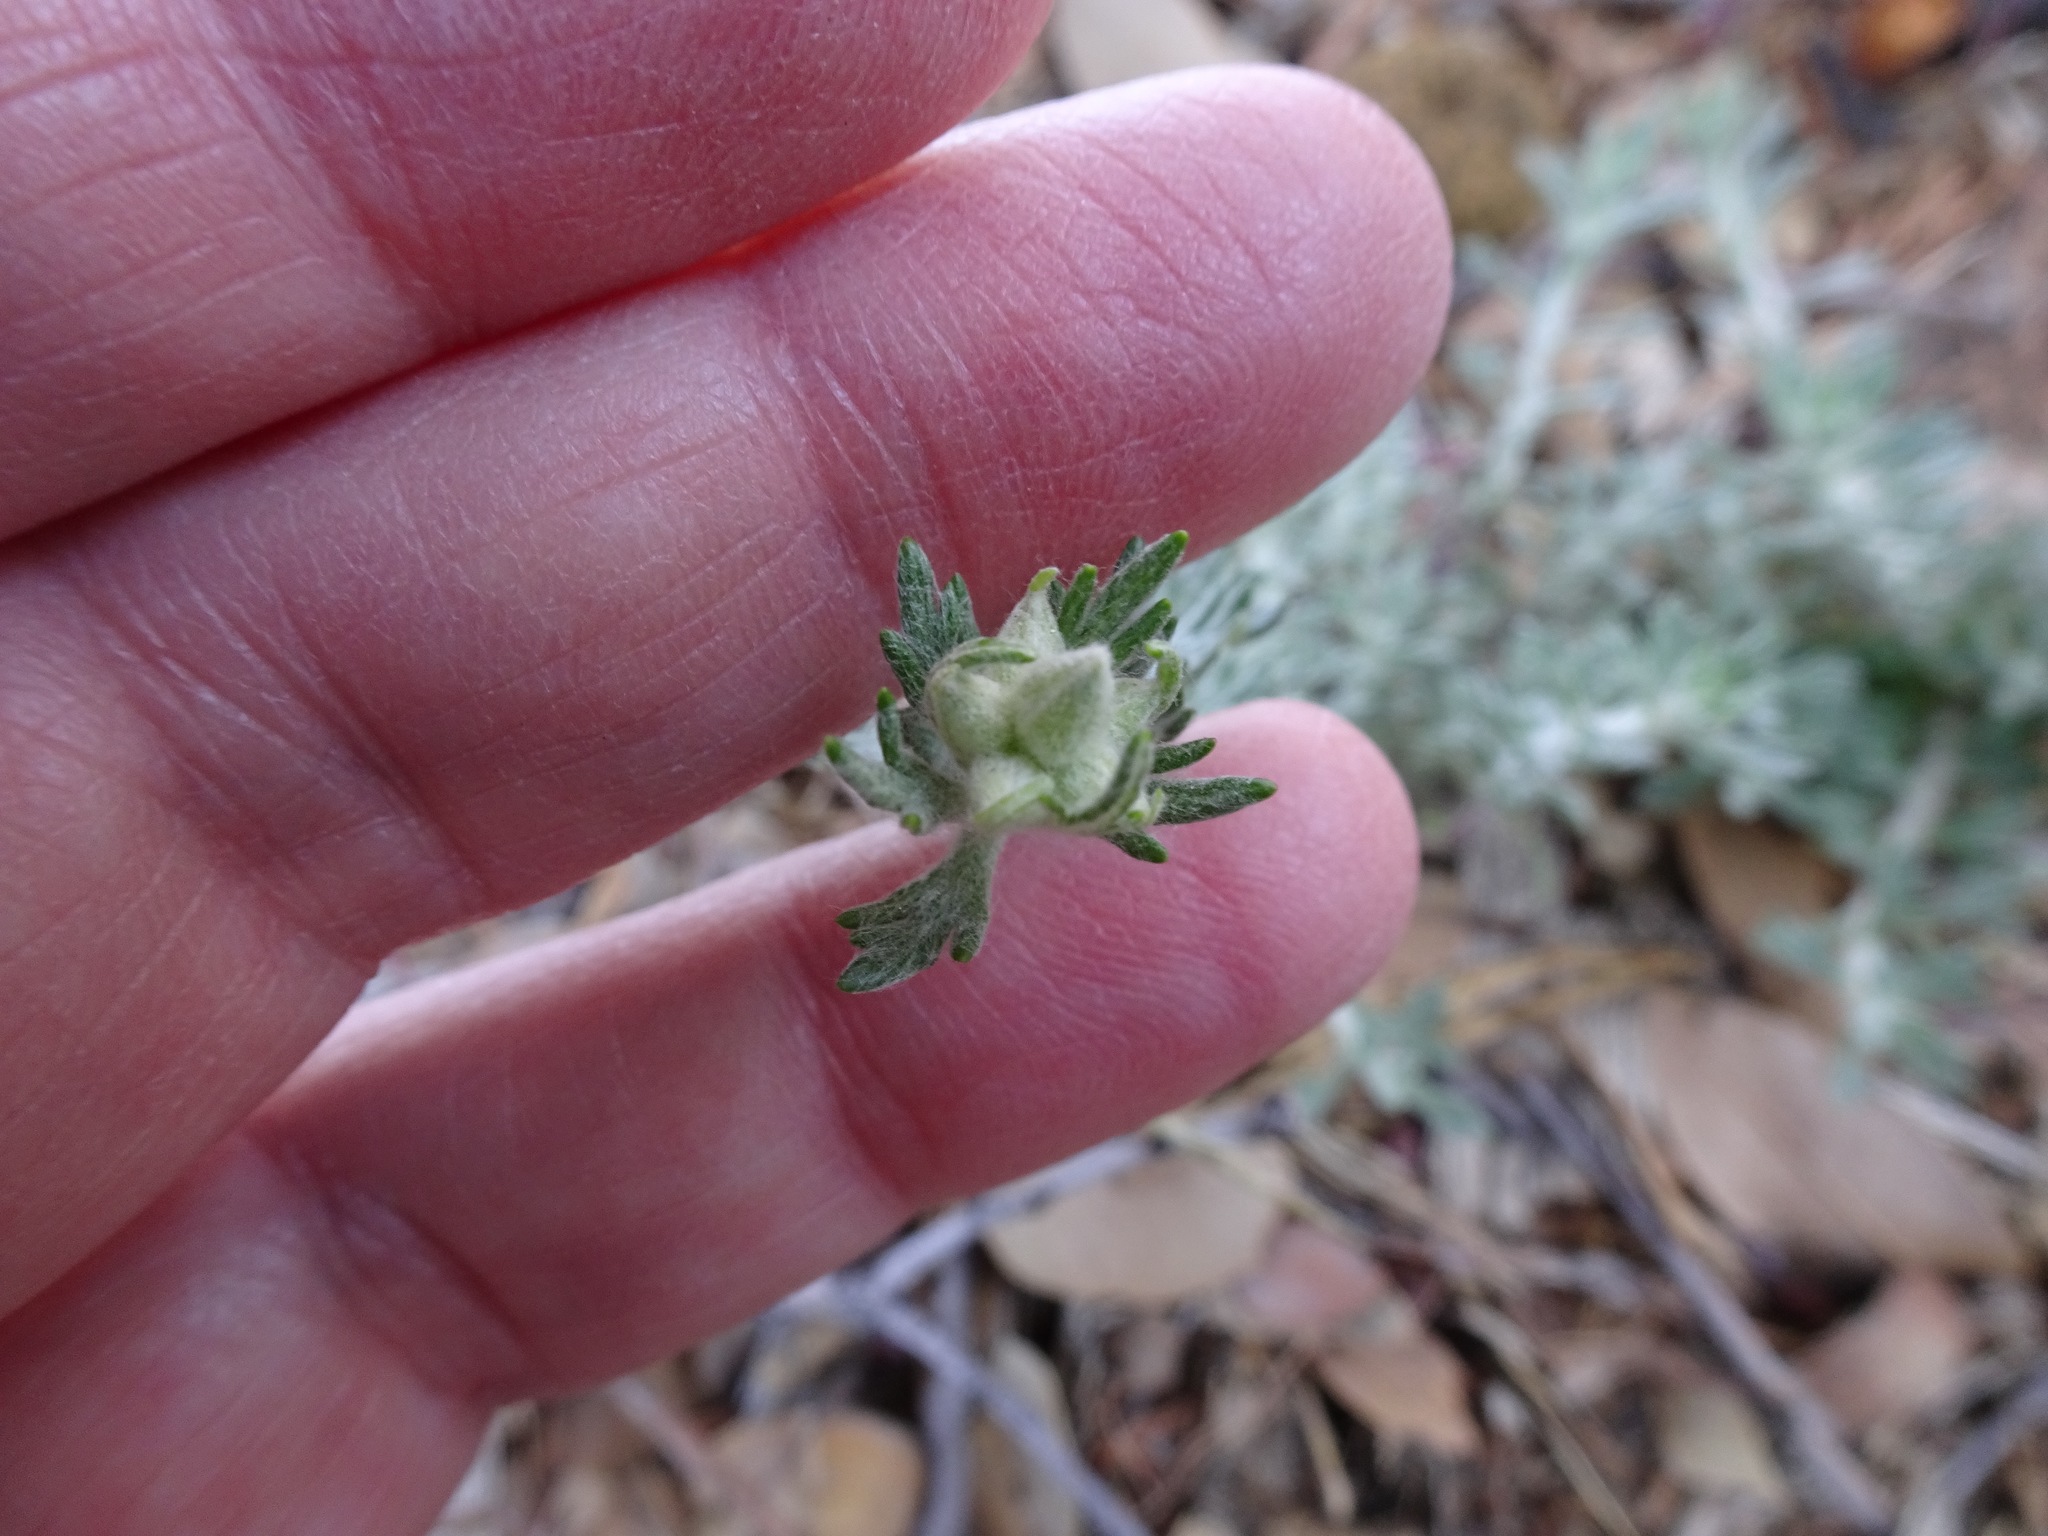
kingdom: Plantae
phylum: Tracheophyta
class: Magnoliopsida
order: Asterales
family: Asteraceae
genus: Eriophyllum
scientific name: Eriophyllum confertiflorum
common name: Golden-yarrow
